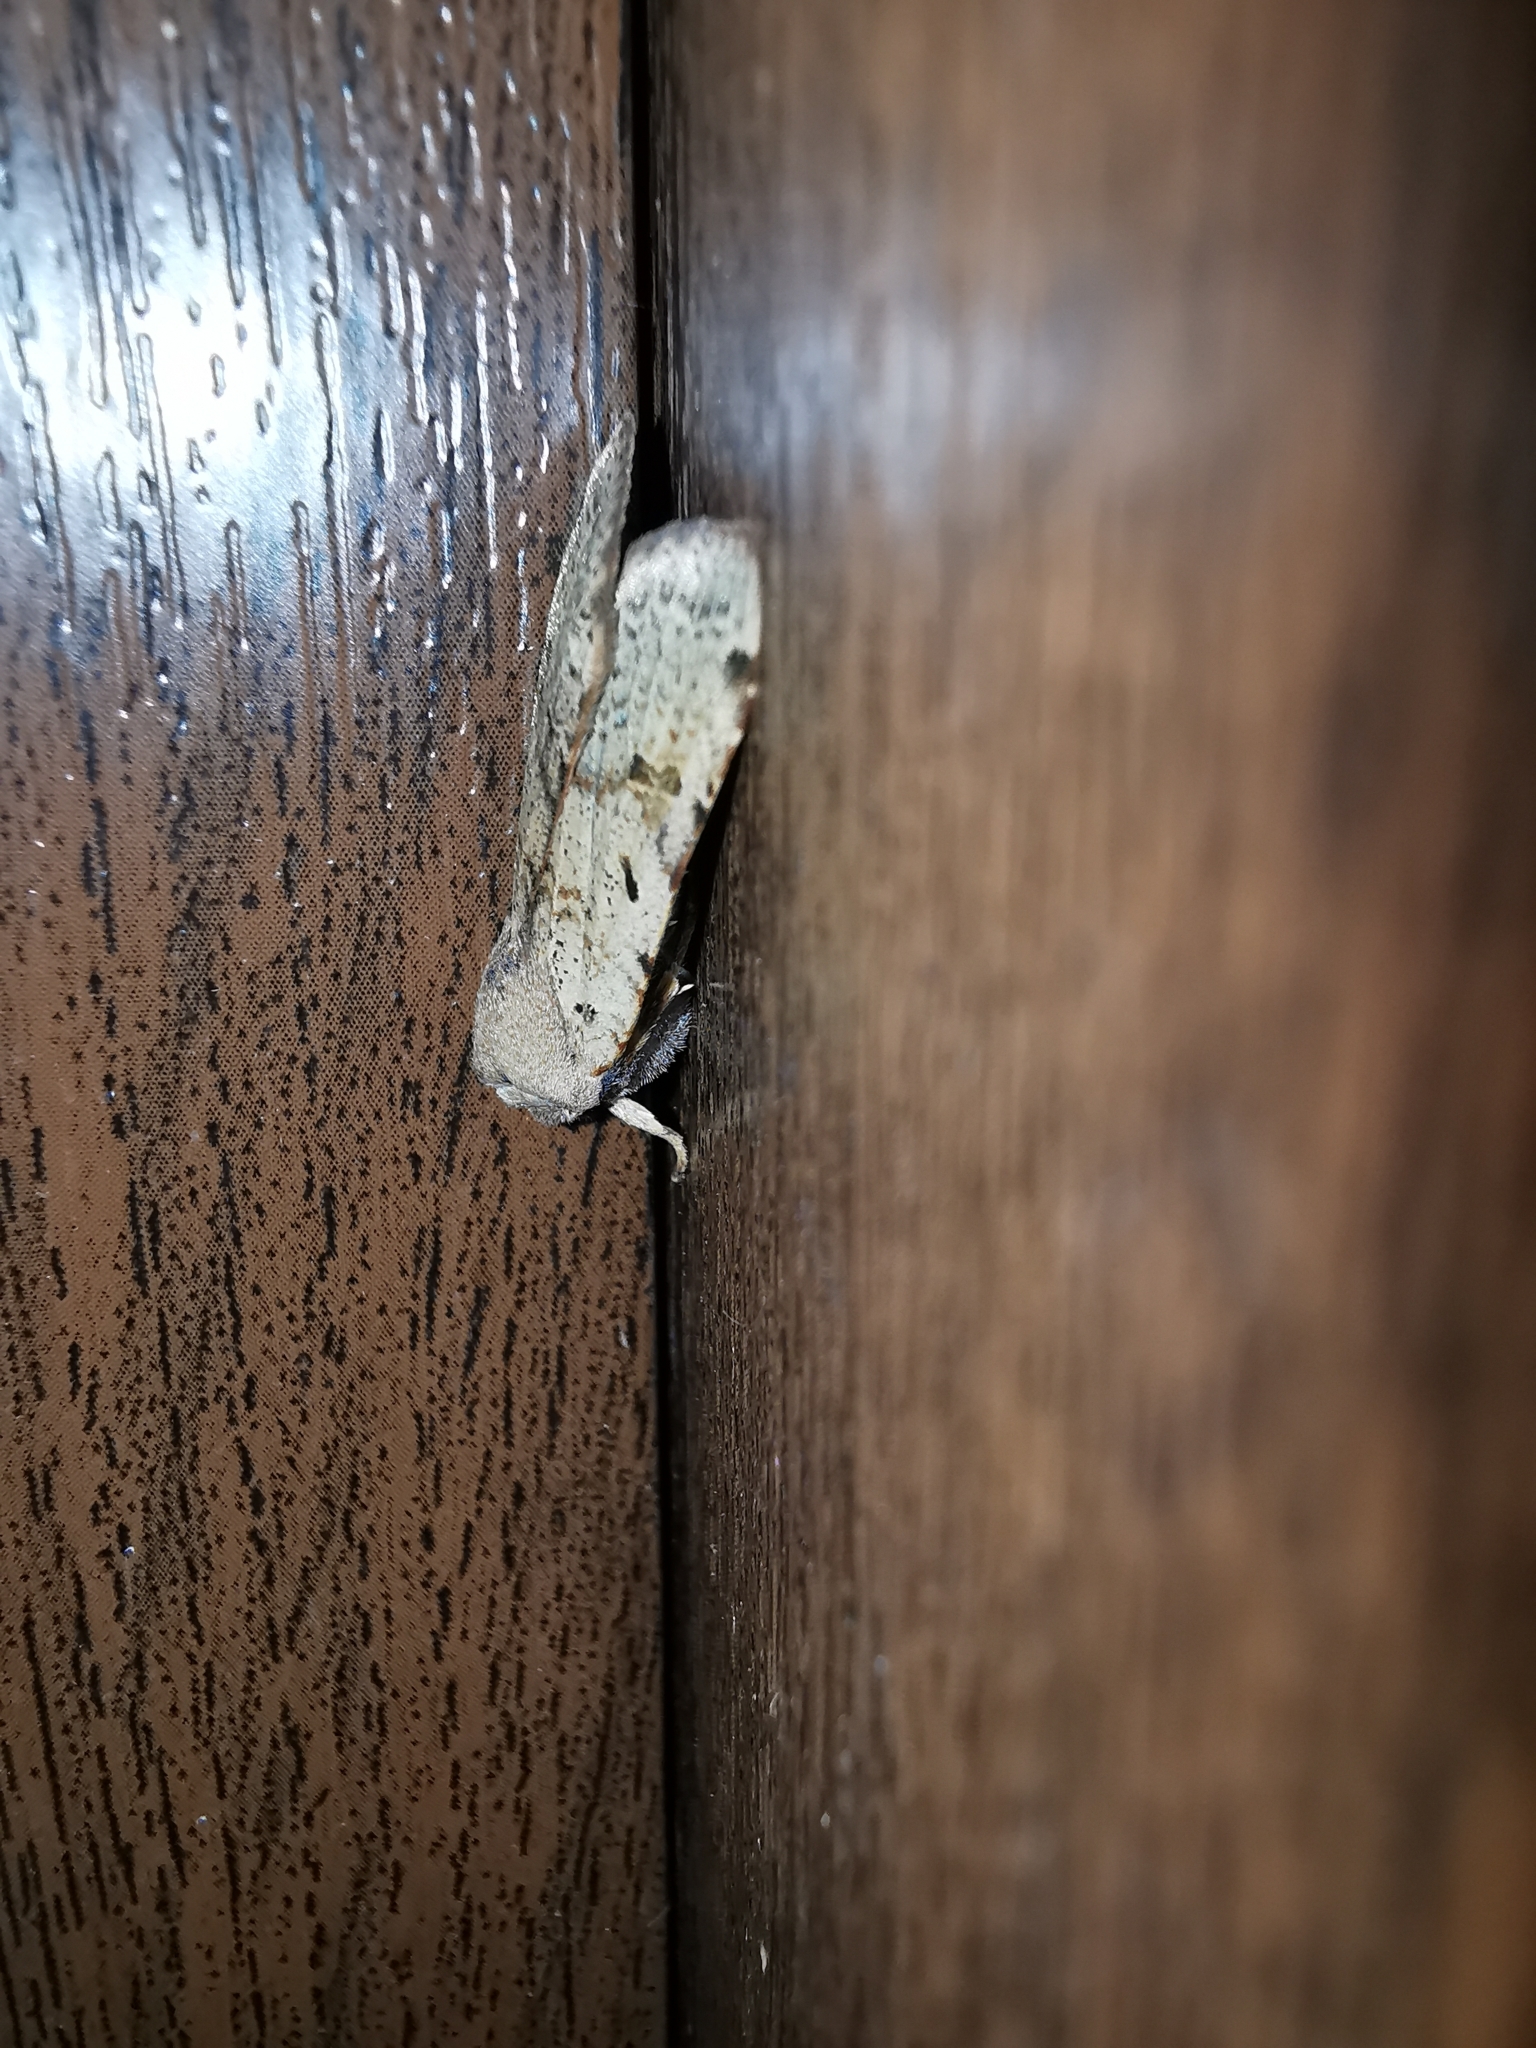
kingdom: Animalia
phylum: Arthropoda
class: Insecta
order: Lepidoptera
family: Noctuidae
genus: Agrochola
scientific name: Agrochola lychnidis
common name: Beaded chestnut
